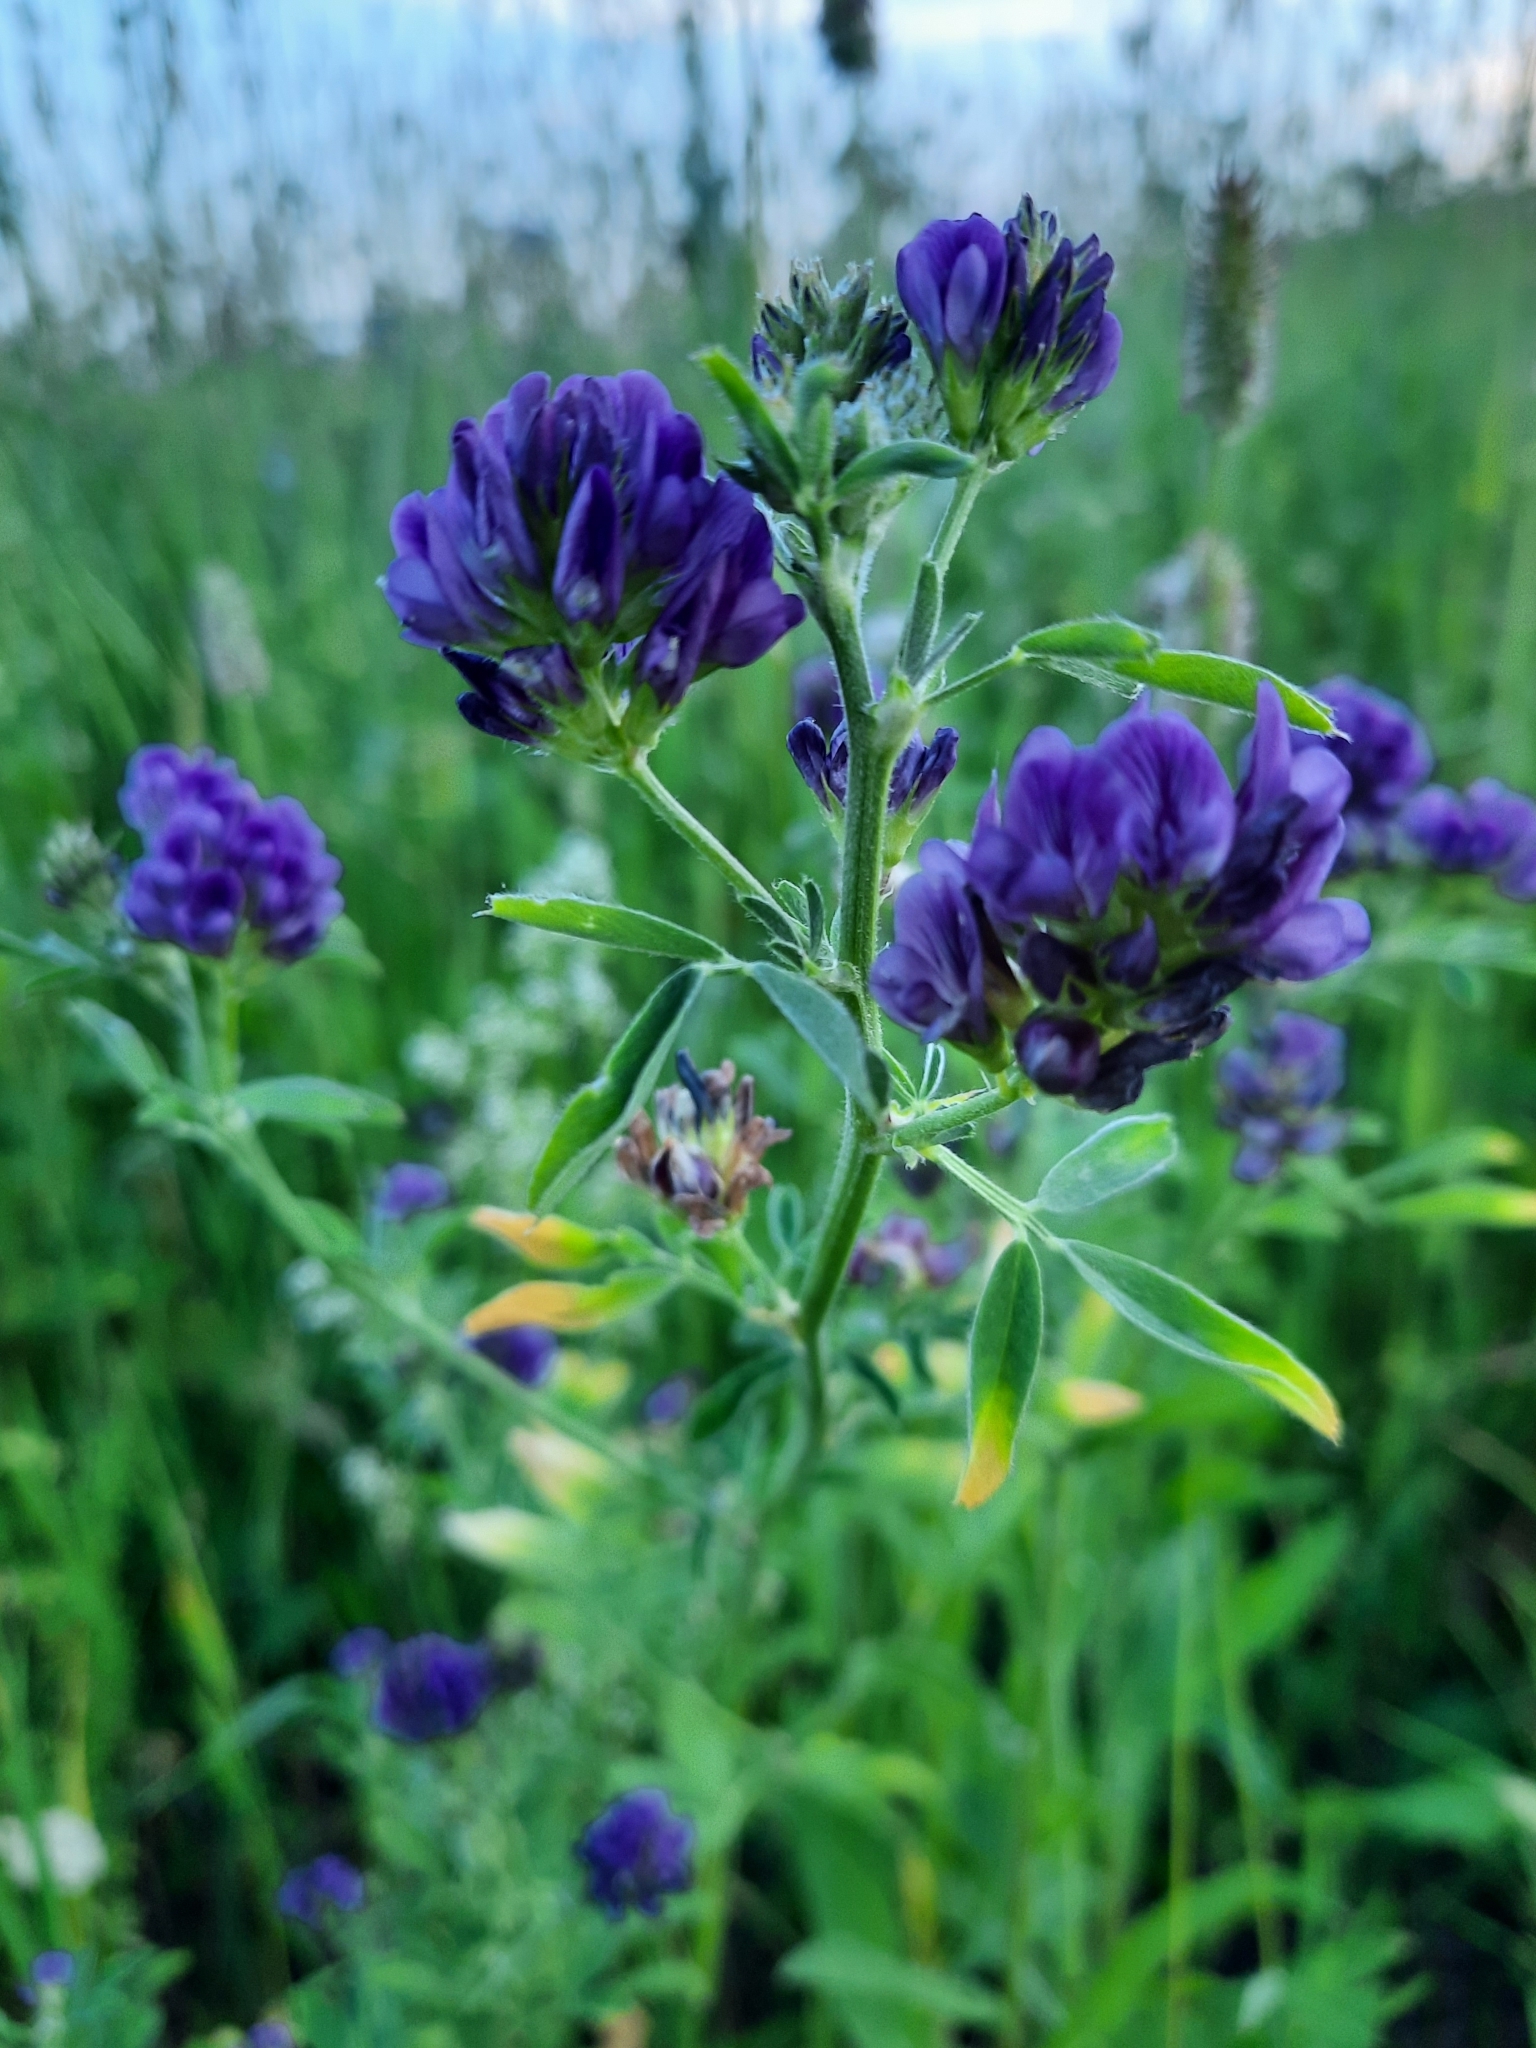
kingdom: Plantae
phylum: Tracheophyta
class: Magnoliopsida
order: Fabales
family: Fabaceae
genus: Medicago
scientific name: Medicago sativa
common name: Alfalfa
